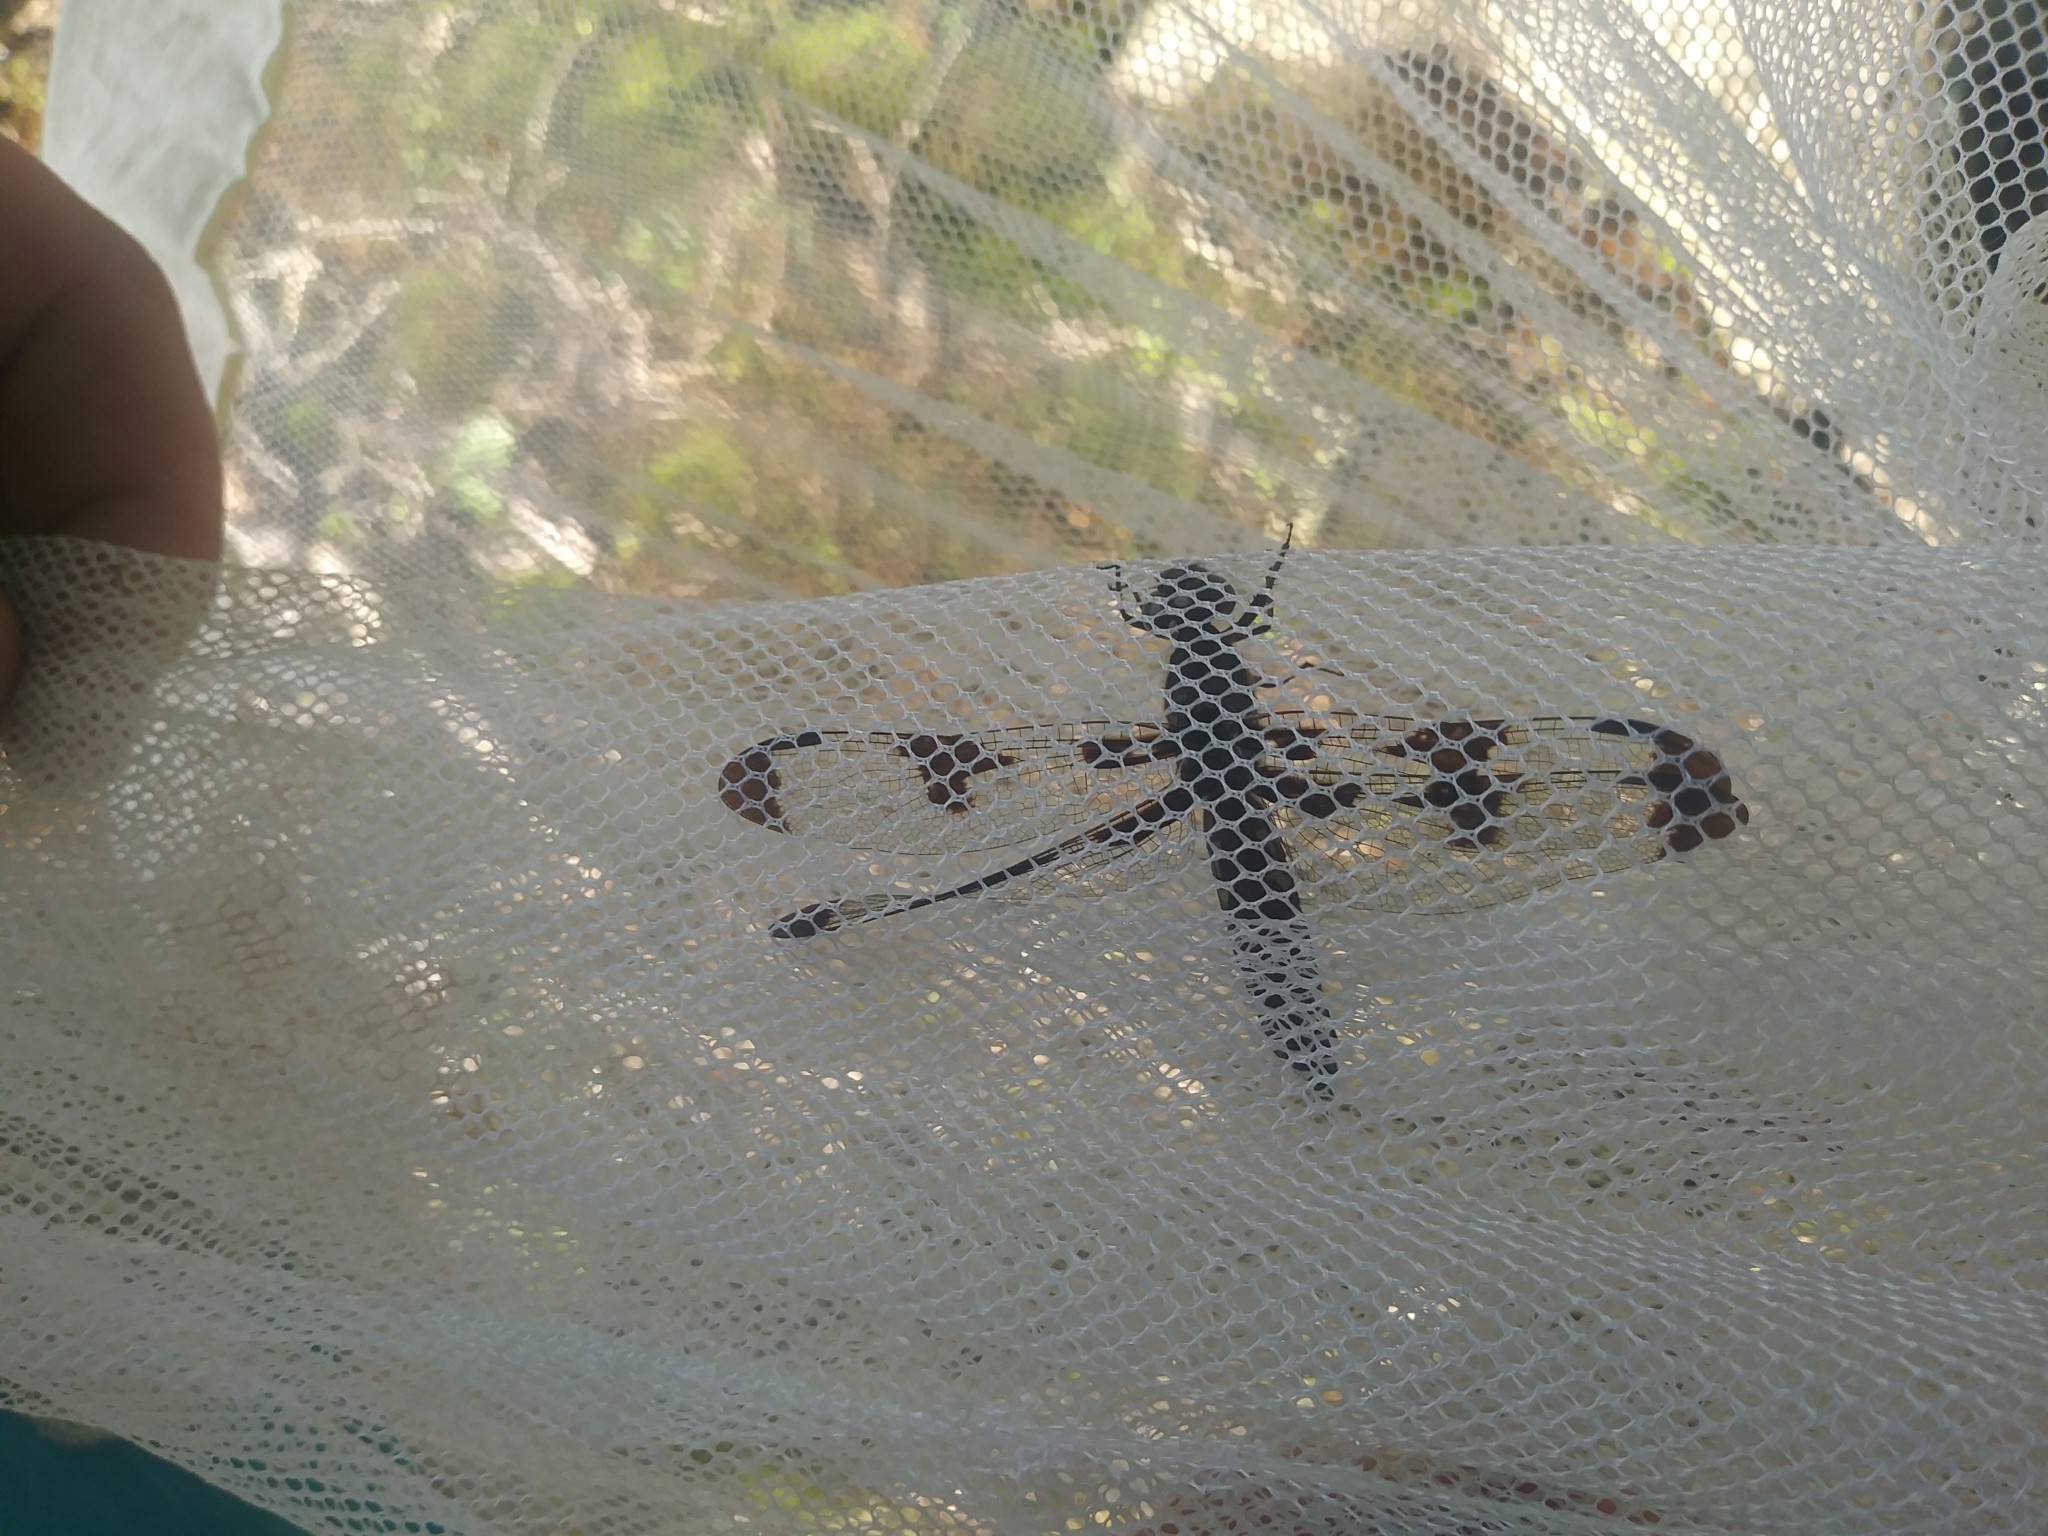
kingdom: Animalia
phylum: Arthropoda
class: Insecta
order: Odonata
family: Libellulidae
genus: Plathemis
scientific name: Plathemis lydia
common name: Common whitetail
